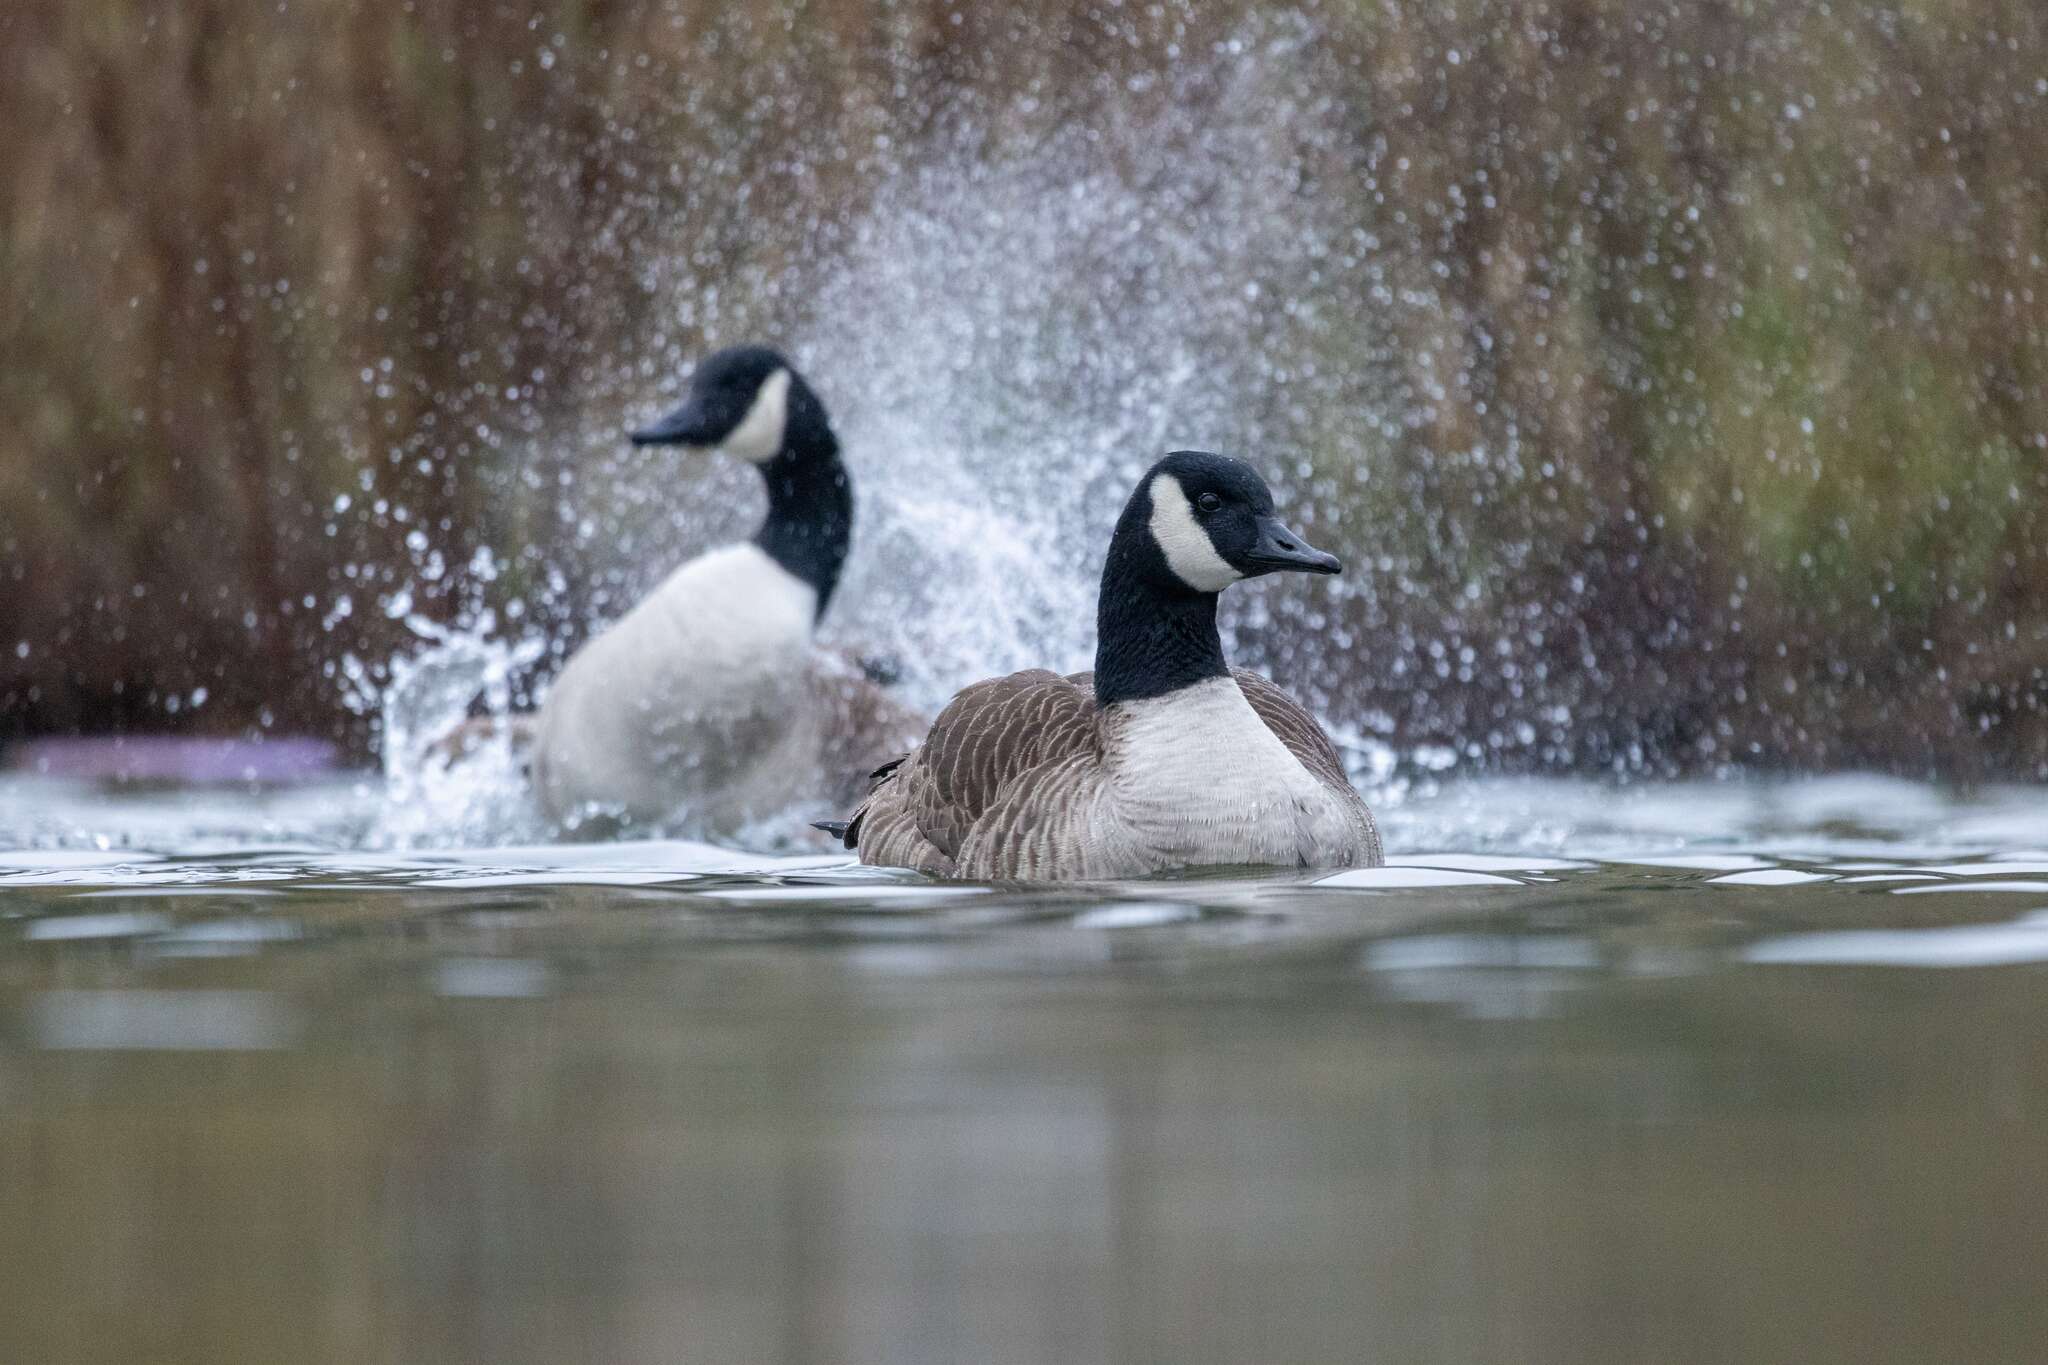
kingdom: Animalia
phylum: Chordata
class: Aves
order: Anseriformes
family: Anatidae
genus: Branta
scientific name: Branta canadensis
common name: Canada goose
